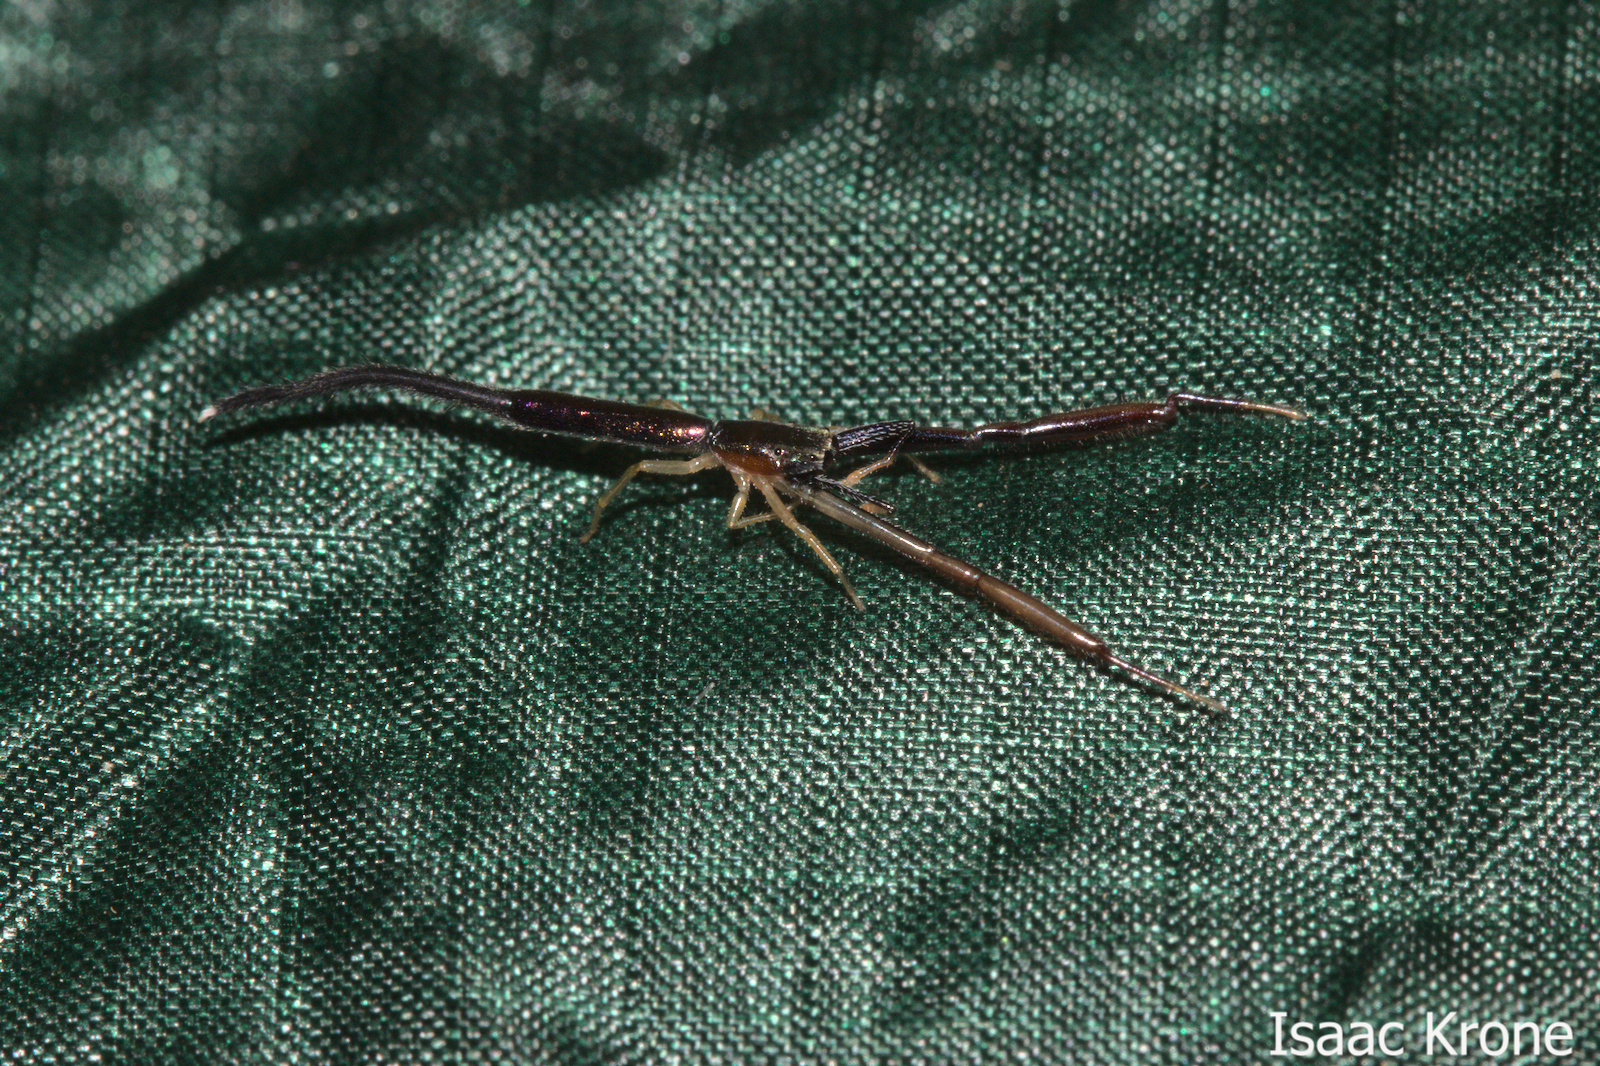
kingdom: Animalia
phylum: Arthropoda
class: Arachnida
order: Araneae
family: Salticidae
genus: Mantisatta
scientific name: Mantisatta longicauda
